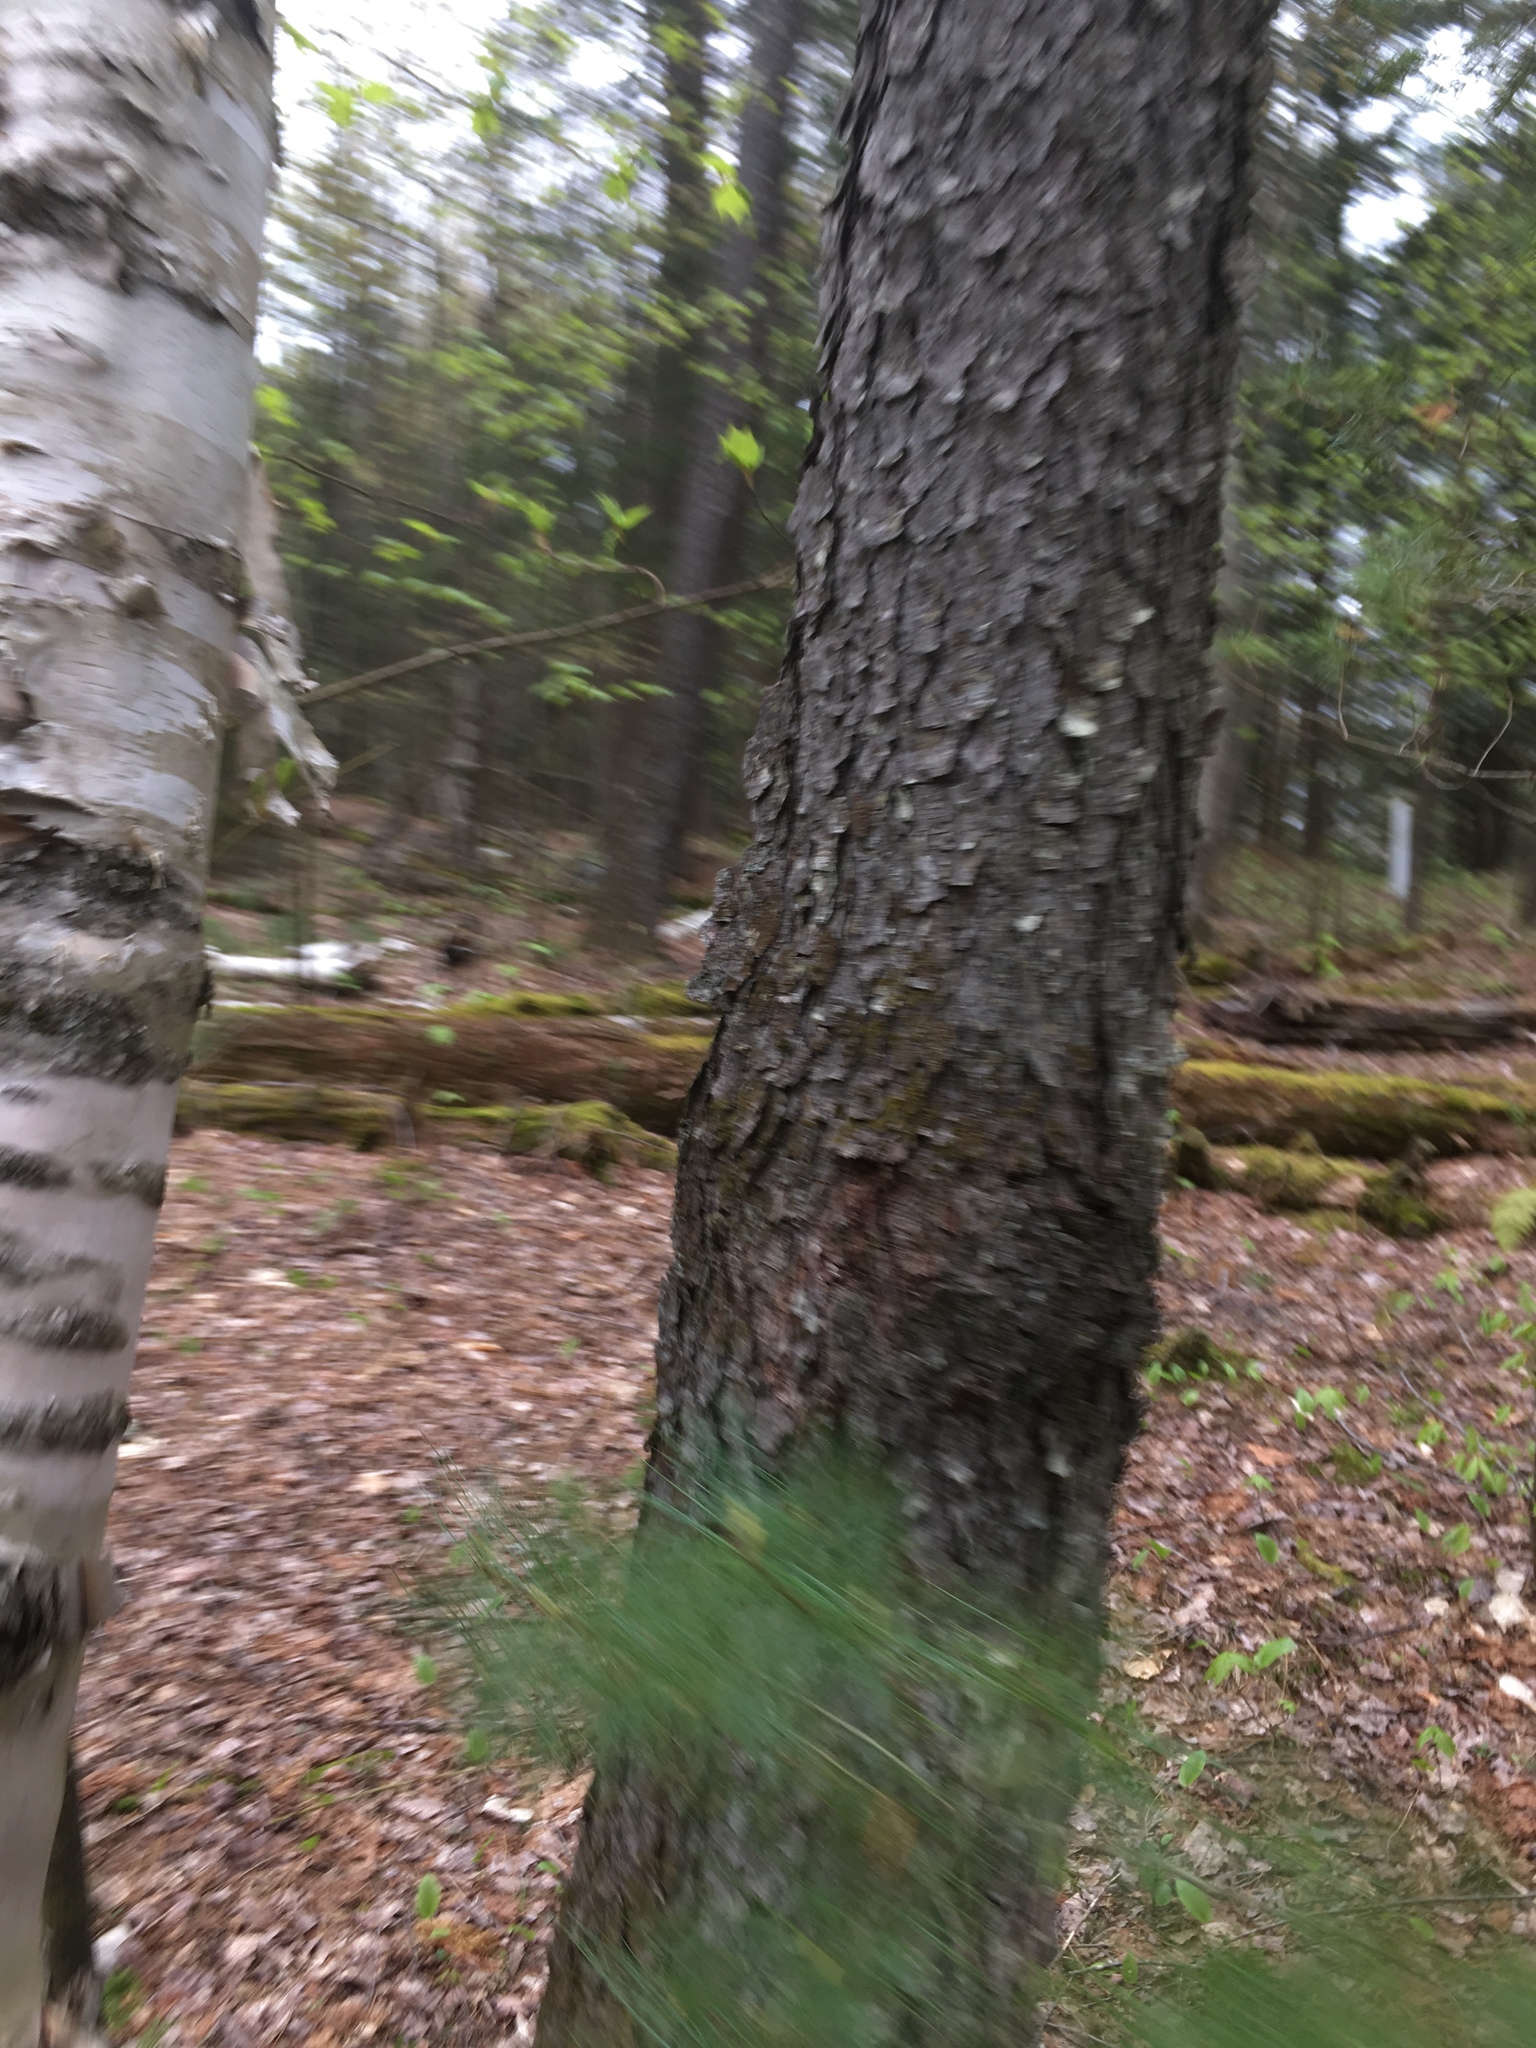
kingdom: Plantae
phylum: Tracheophyta
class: Magnoliopsida
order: Rosales
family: Rosaceae
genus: Prunus
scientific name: Prunus serotina
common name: Black cherry
